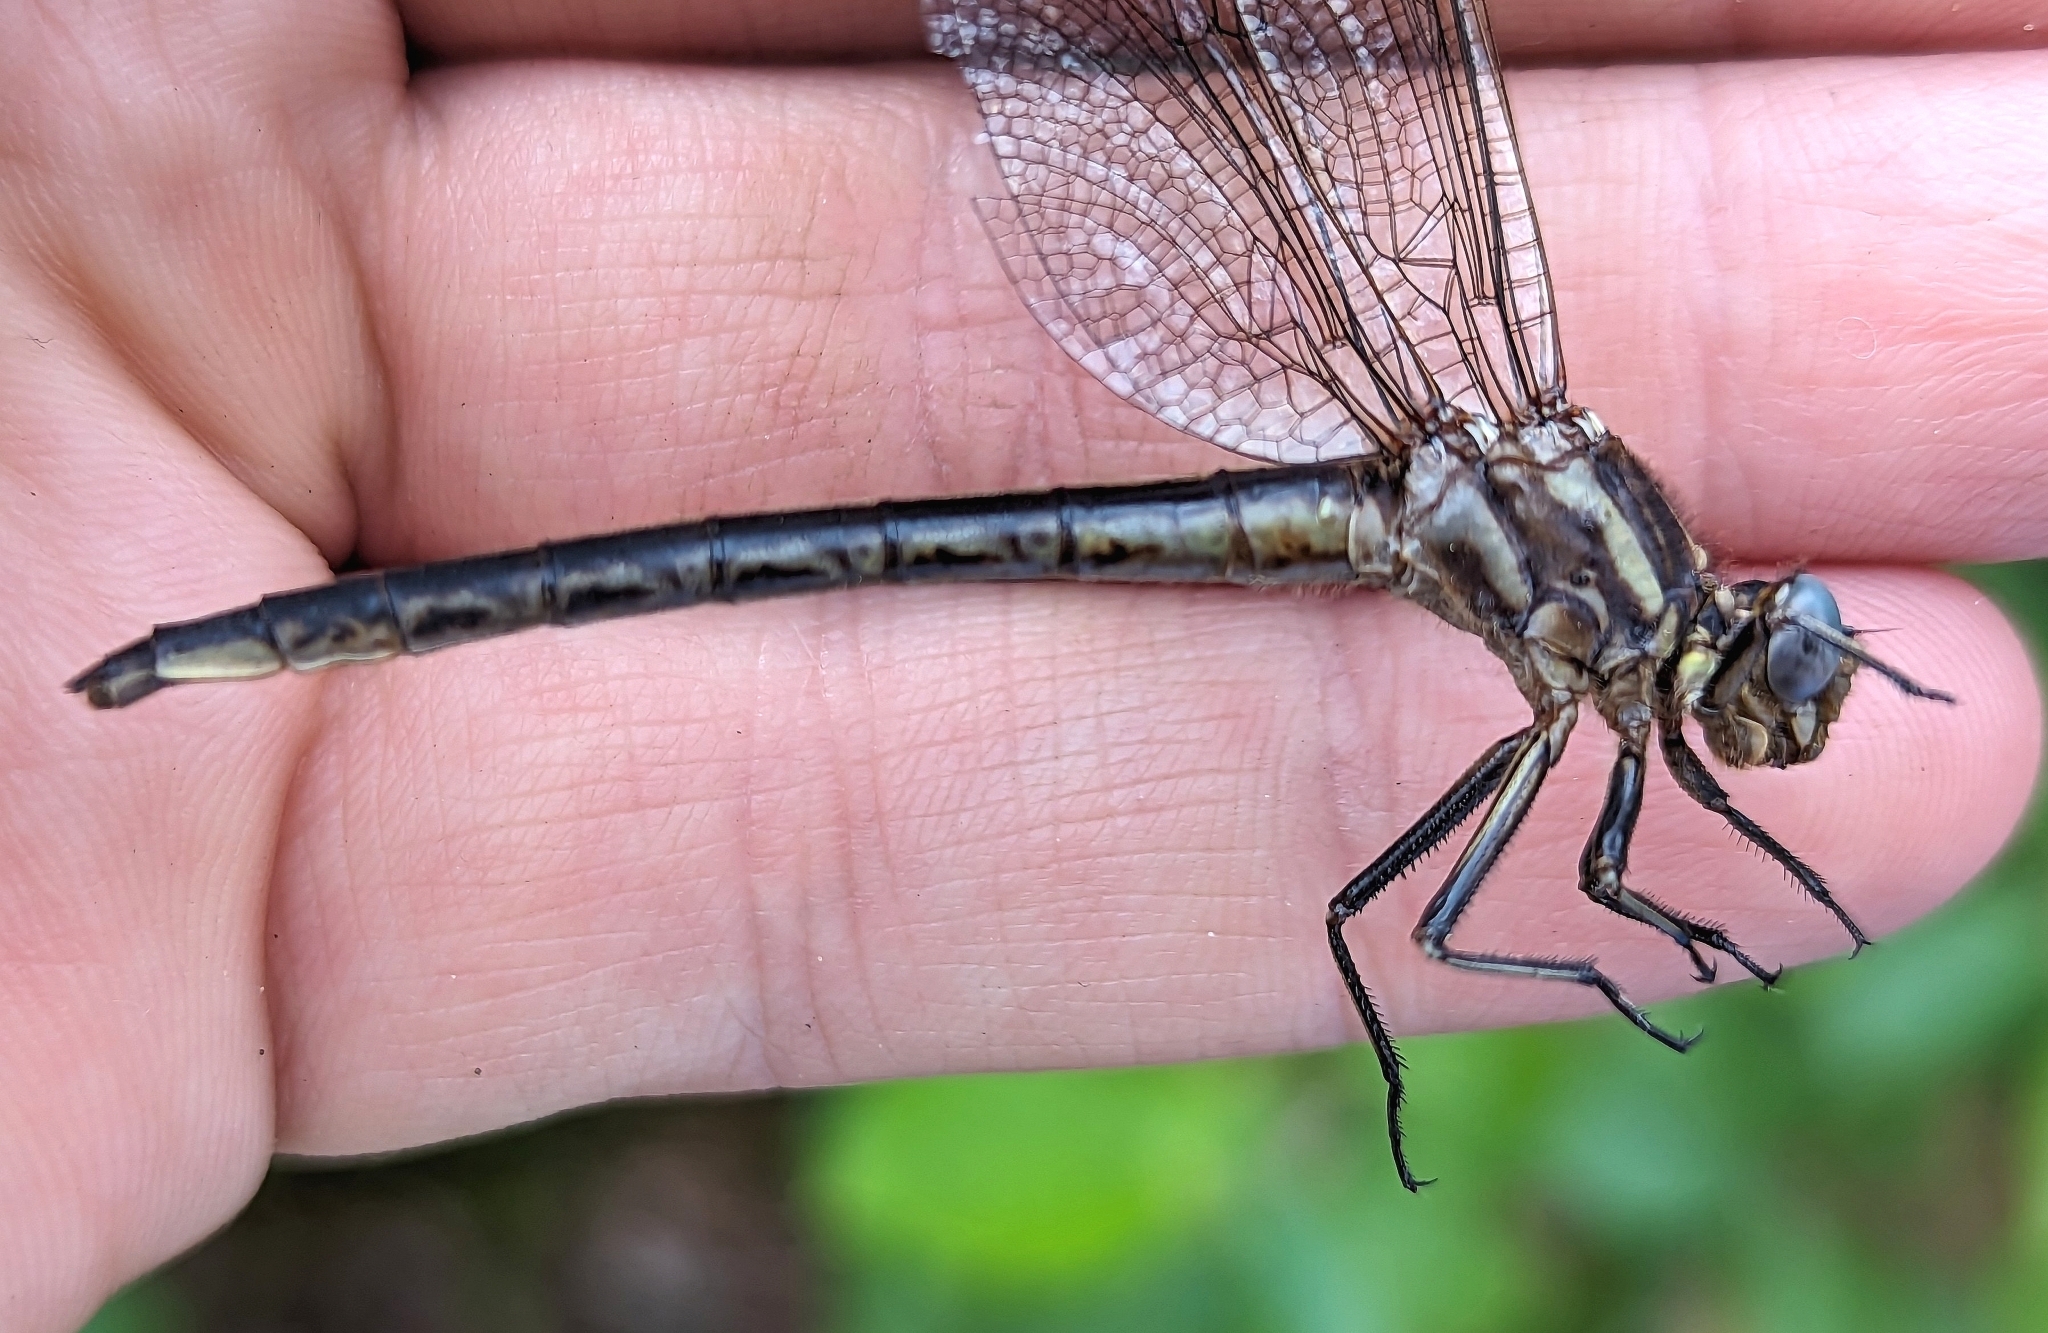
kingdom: Animalia
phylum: Arthropoda
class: Insecta
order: Odonata
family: Gomphidae
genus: Phanogomphus
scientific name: Phanogomphus spicatus
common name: Dusky clubtail
